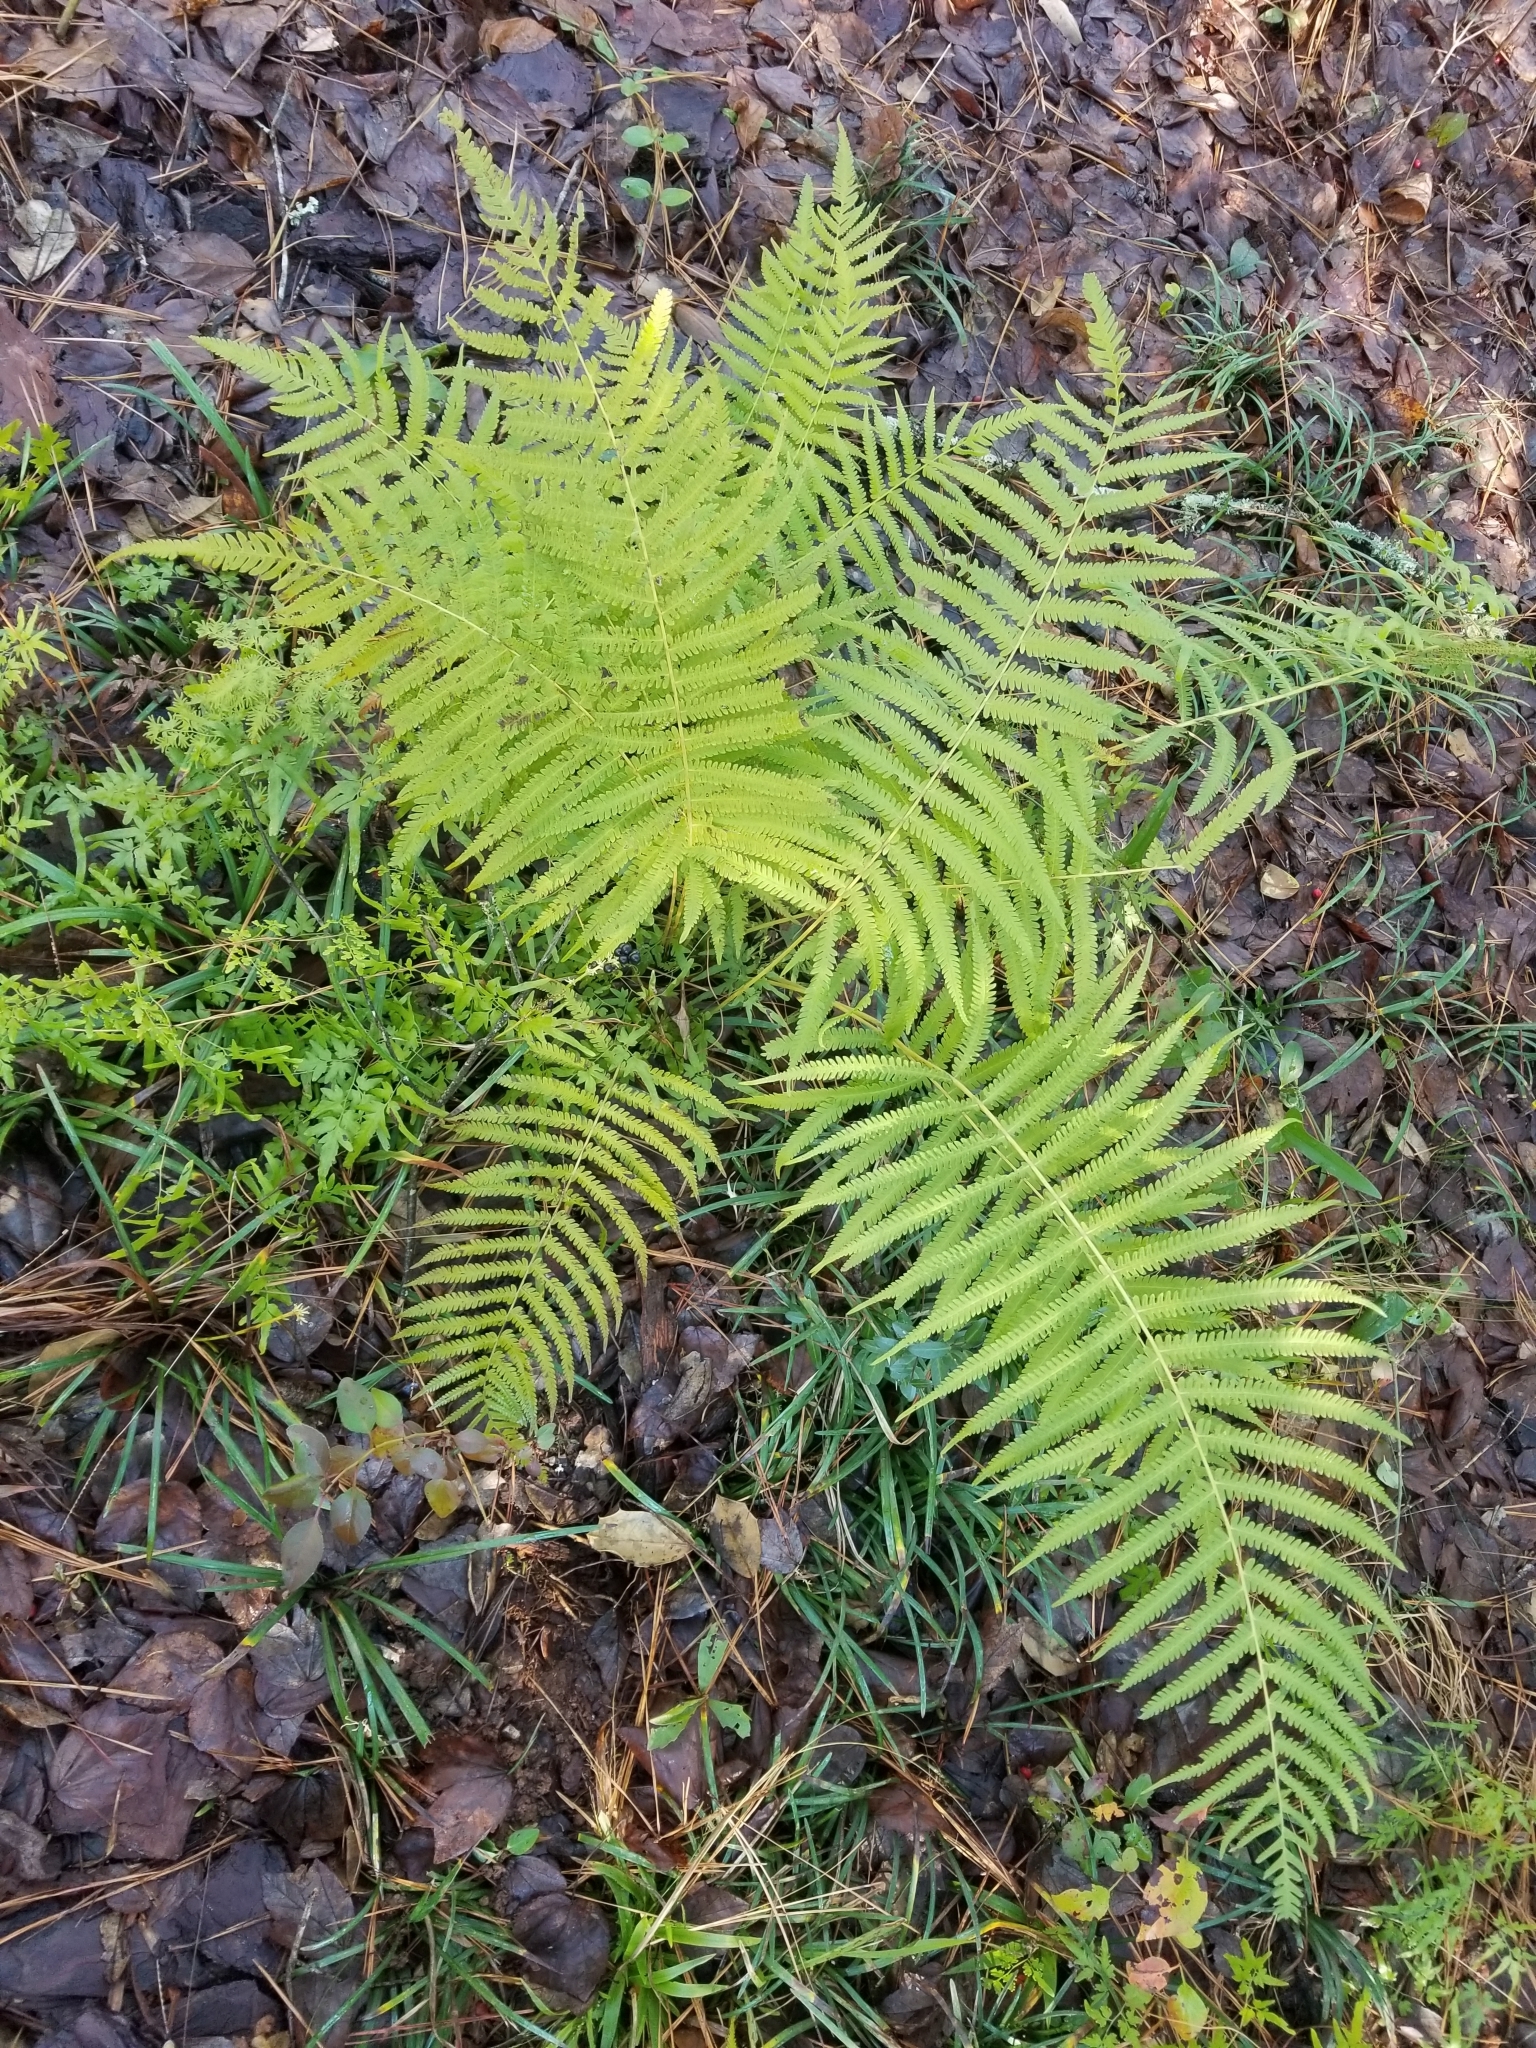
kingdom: Plantae
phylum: Tracheophyta
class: Polypodiopsida
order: Osmundales
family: Osmundaceae
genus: Osmundastrum
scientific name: Osmundastrum cinnamomeum
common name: Cinnamon fern
